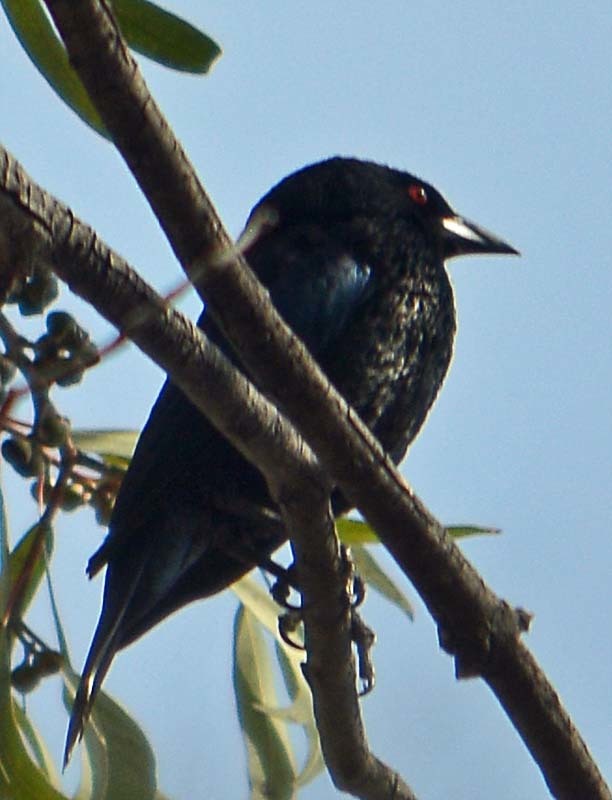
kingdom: Animalia
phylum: Chordata
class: Aves
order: Passeriformes
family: Icteridae
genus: Molothrus
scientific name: Molothrus aeneus
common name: Bronzed cowbird
